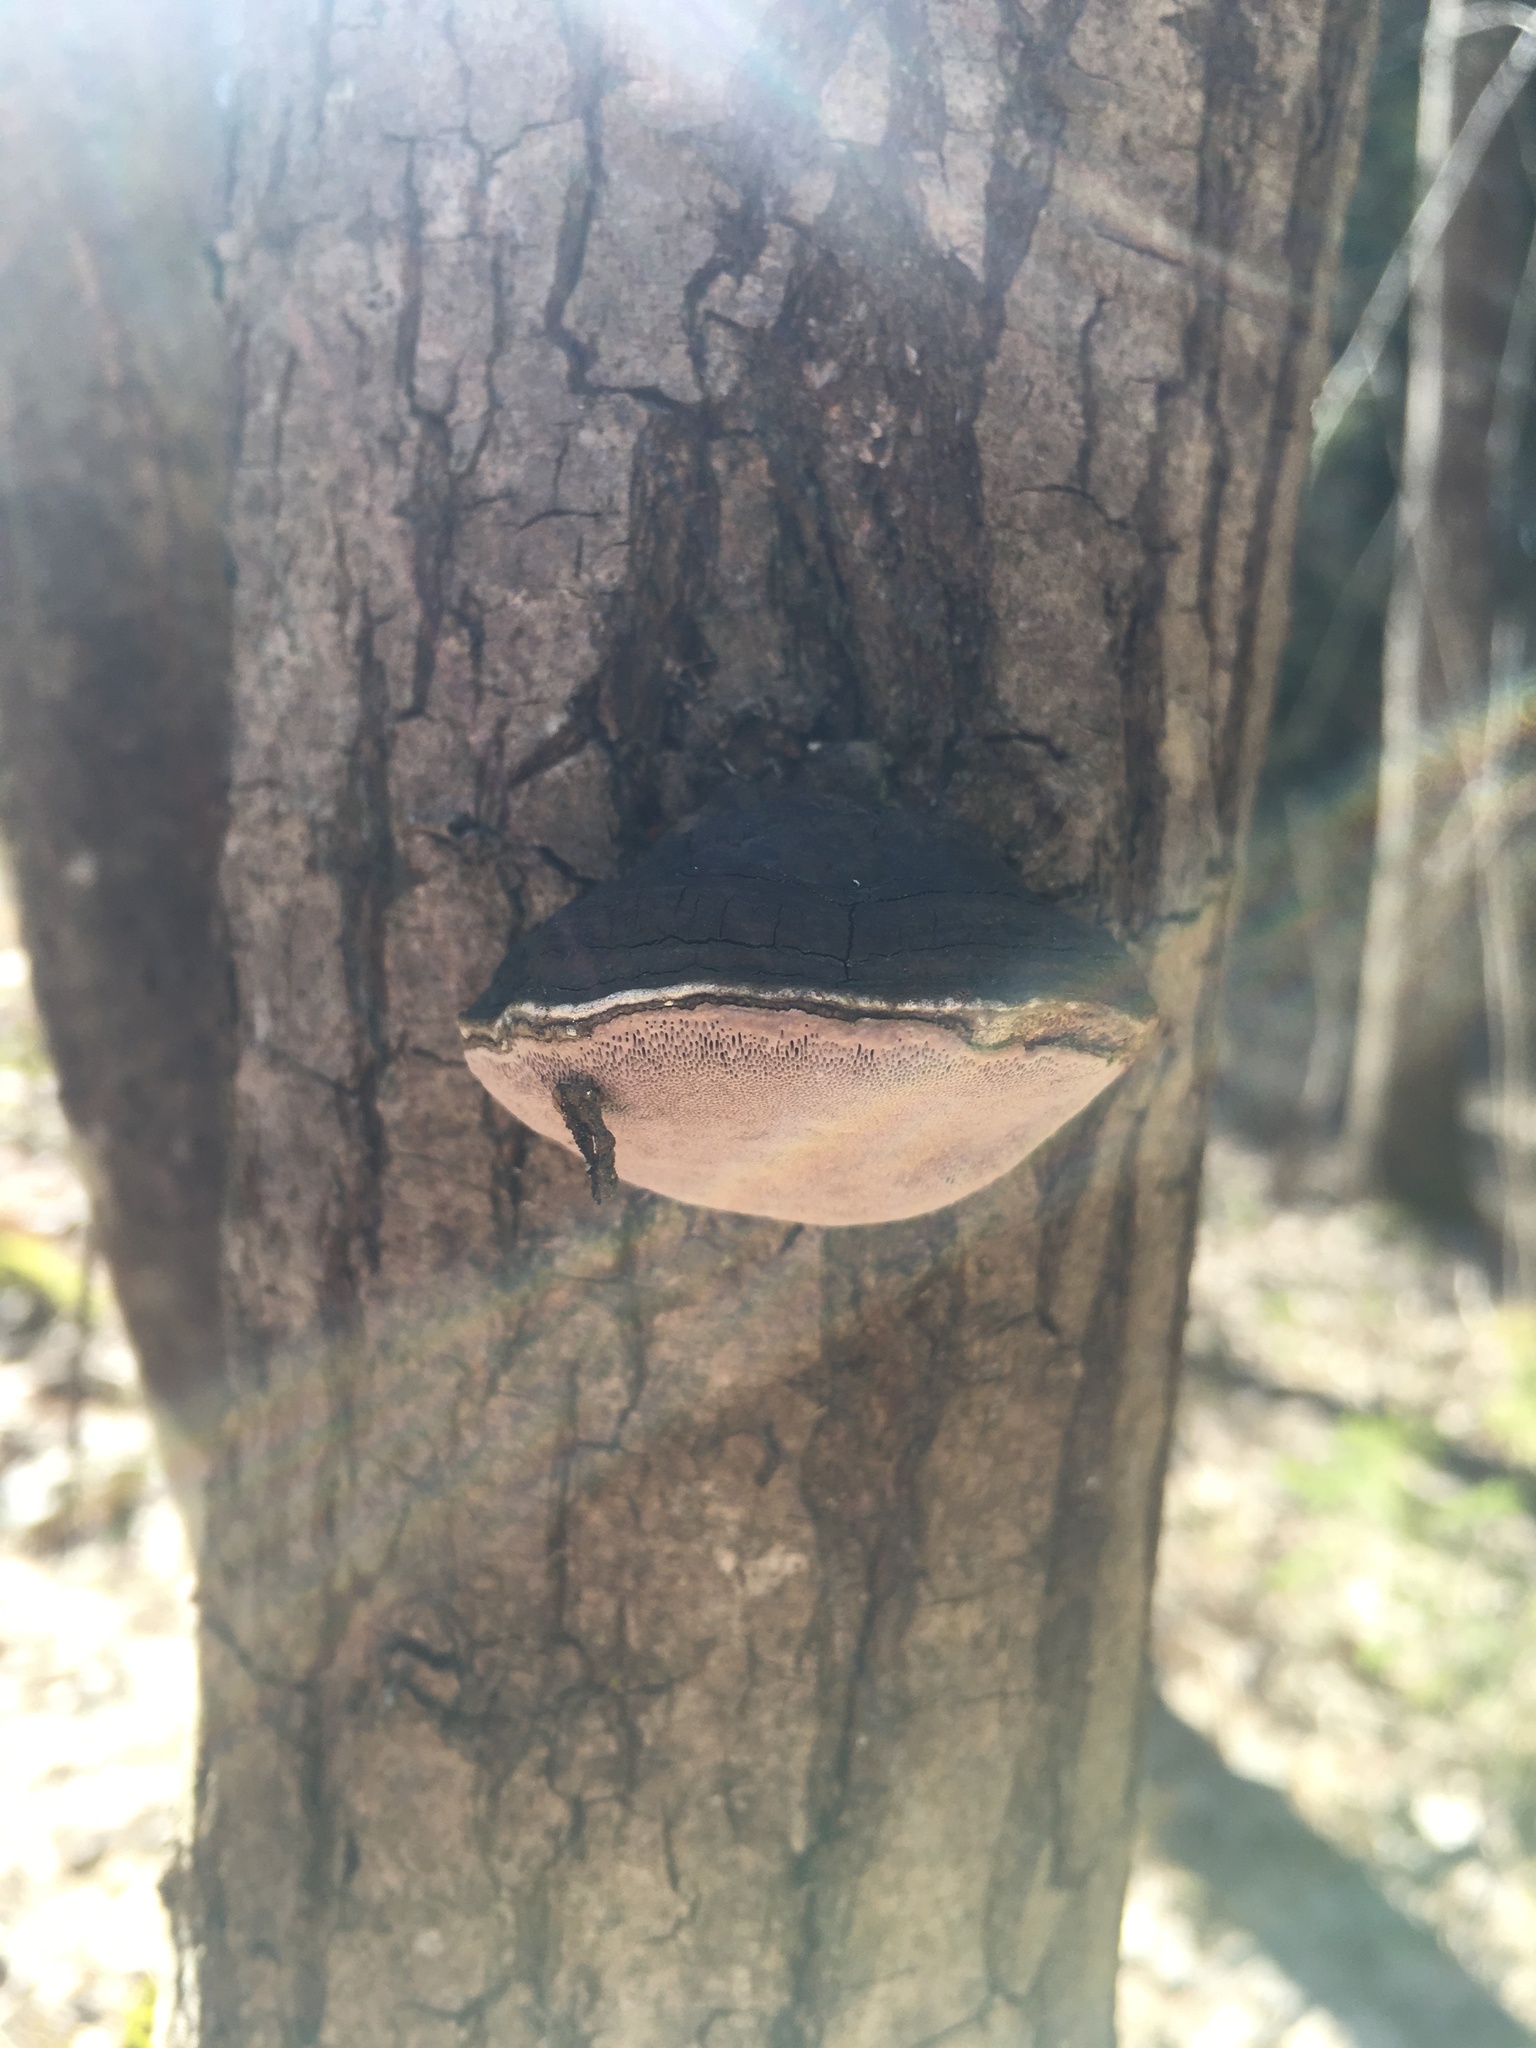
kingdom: Fungi
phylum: Basidiomycota
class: Agaricomycetes
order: Hymenochaetales
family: Hymenochaetaceae
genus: Phellinus
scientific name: Phellinus igniarius
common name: Willow bracket
